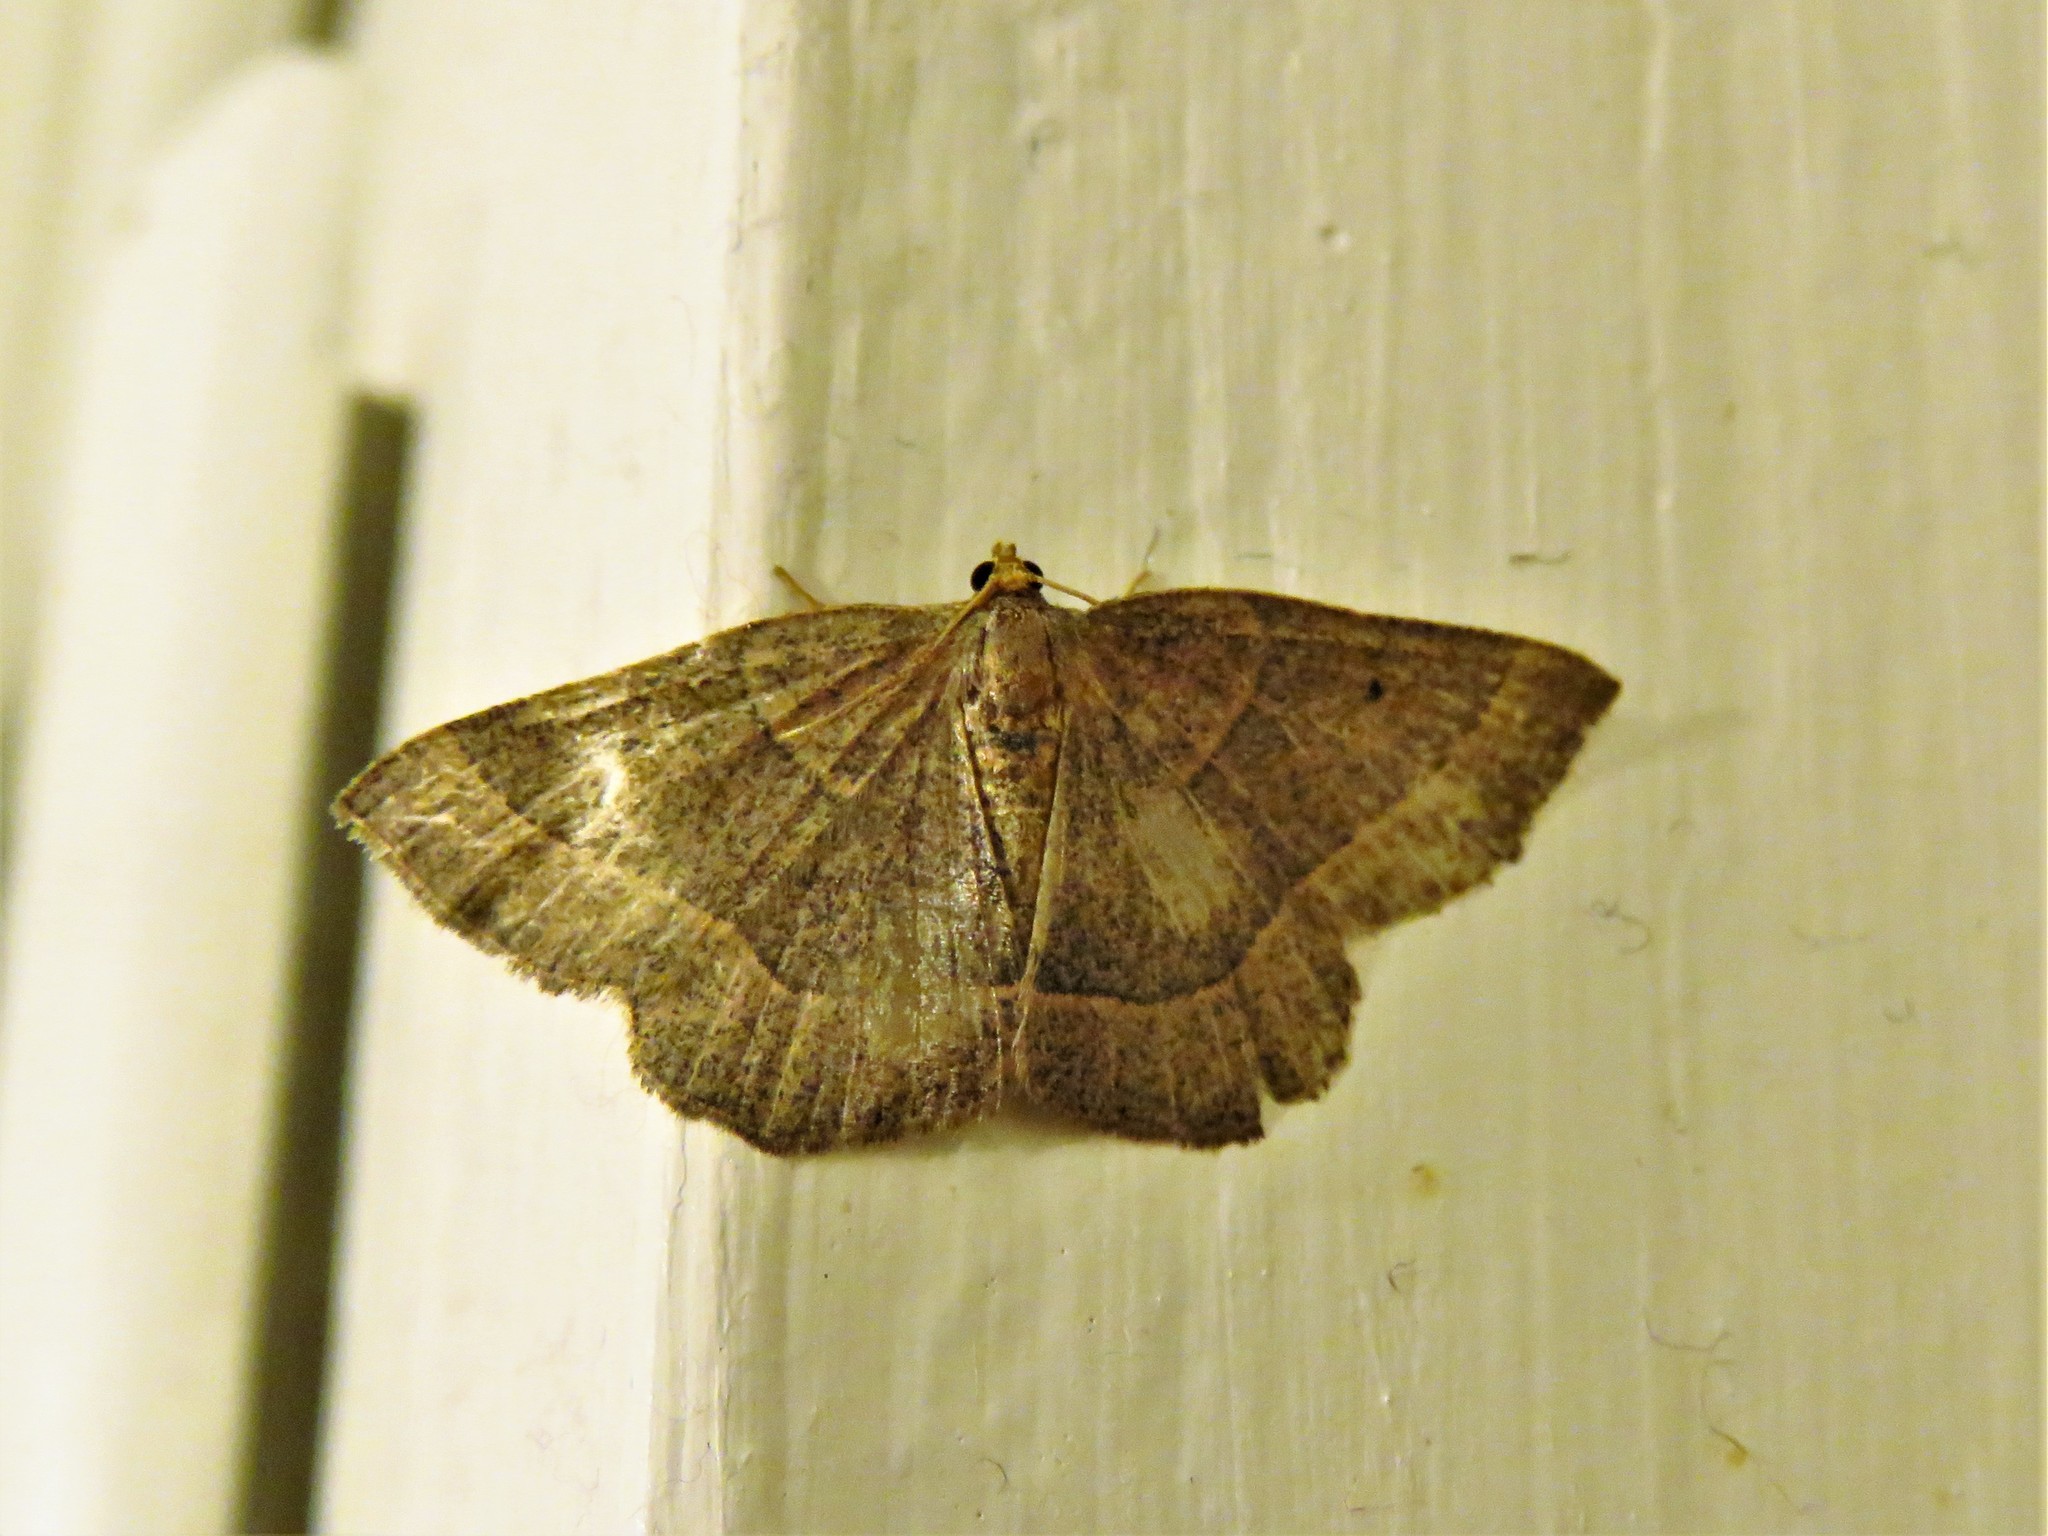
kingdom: Animalia
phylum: Arthropoda
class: Insecta
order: Lepidoptera
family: Geometridae
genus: Episemasia
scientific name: Episemasia cervinaria
